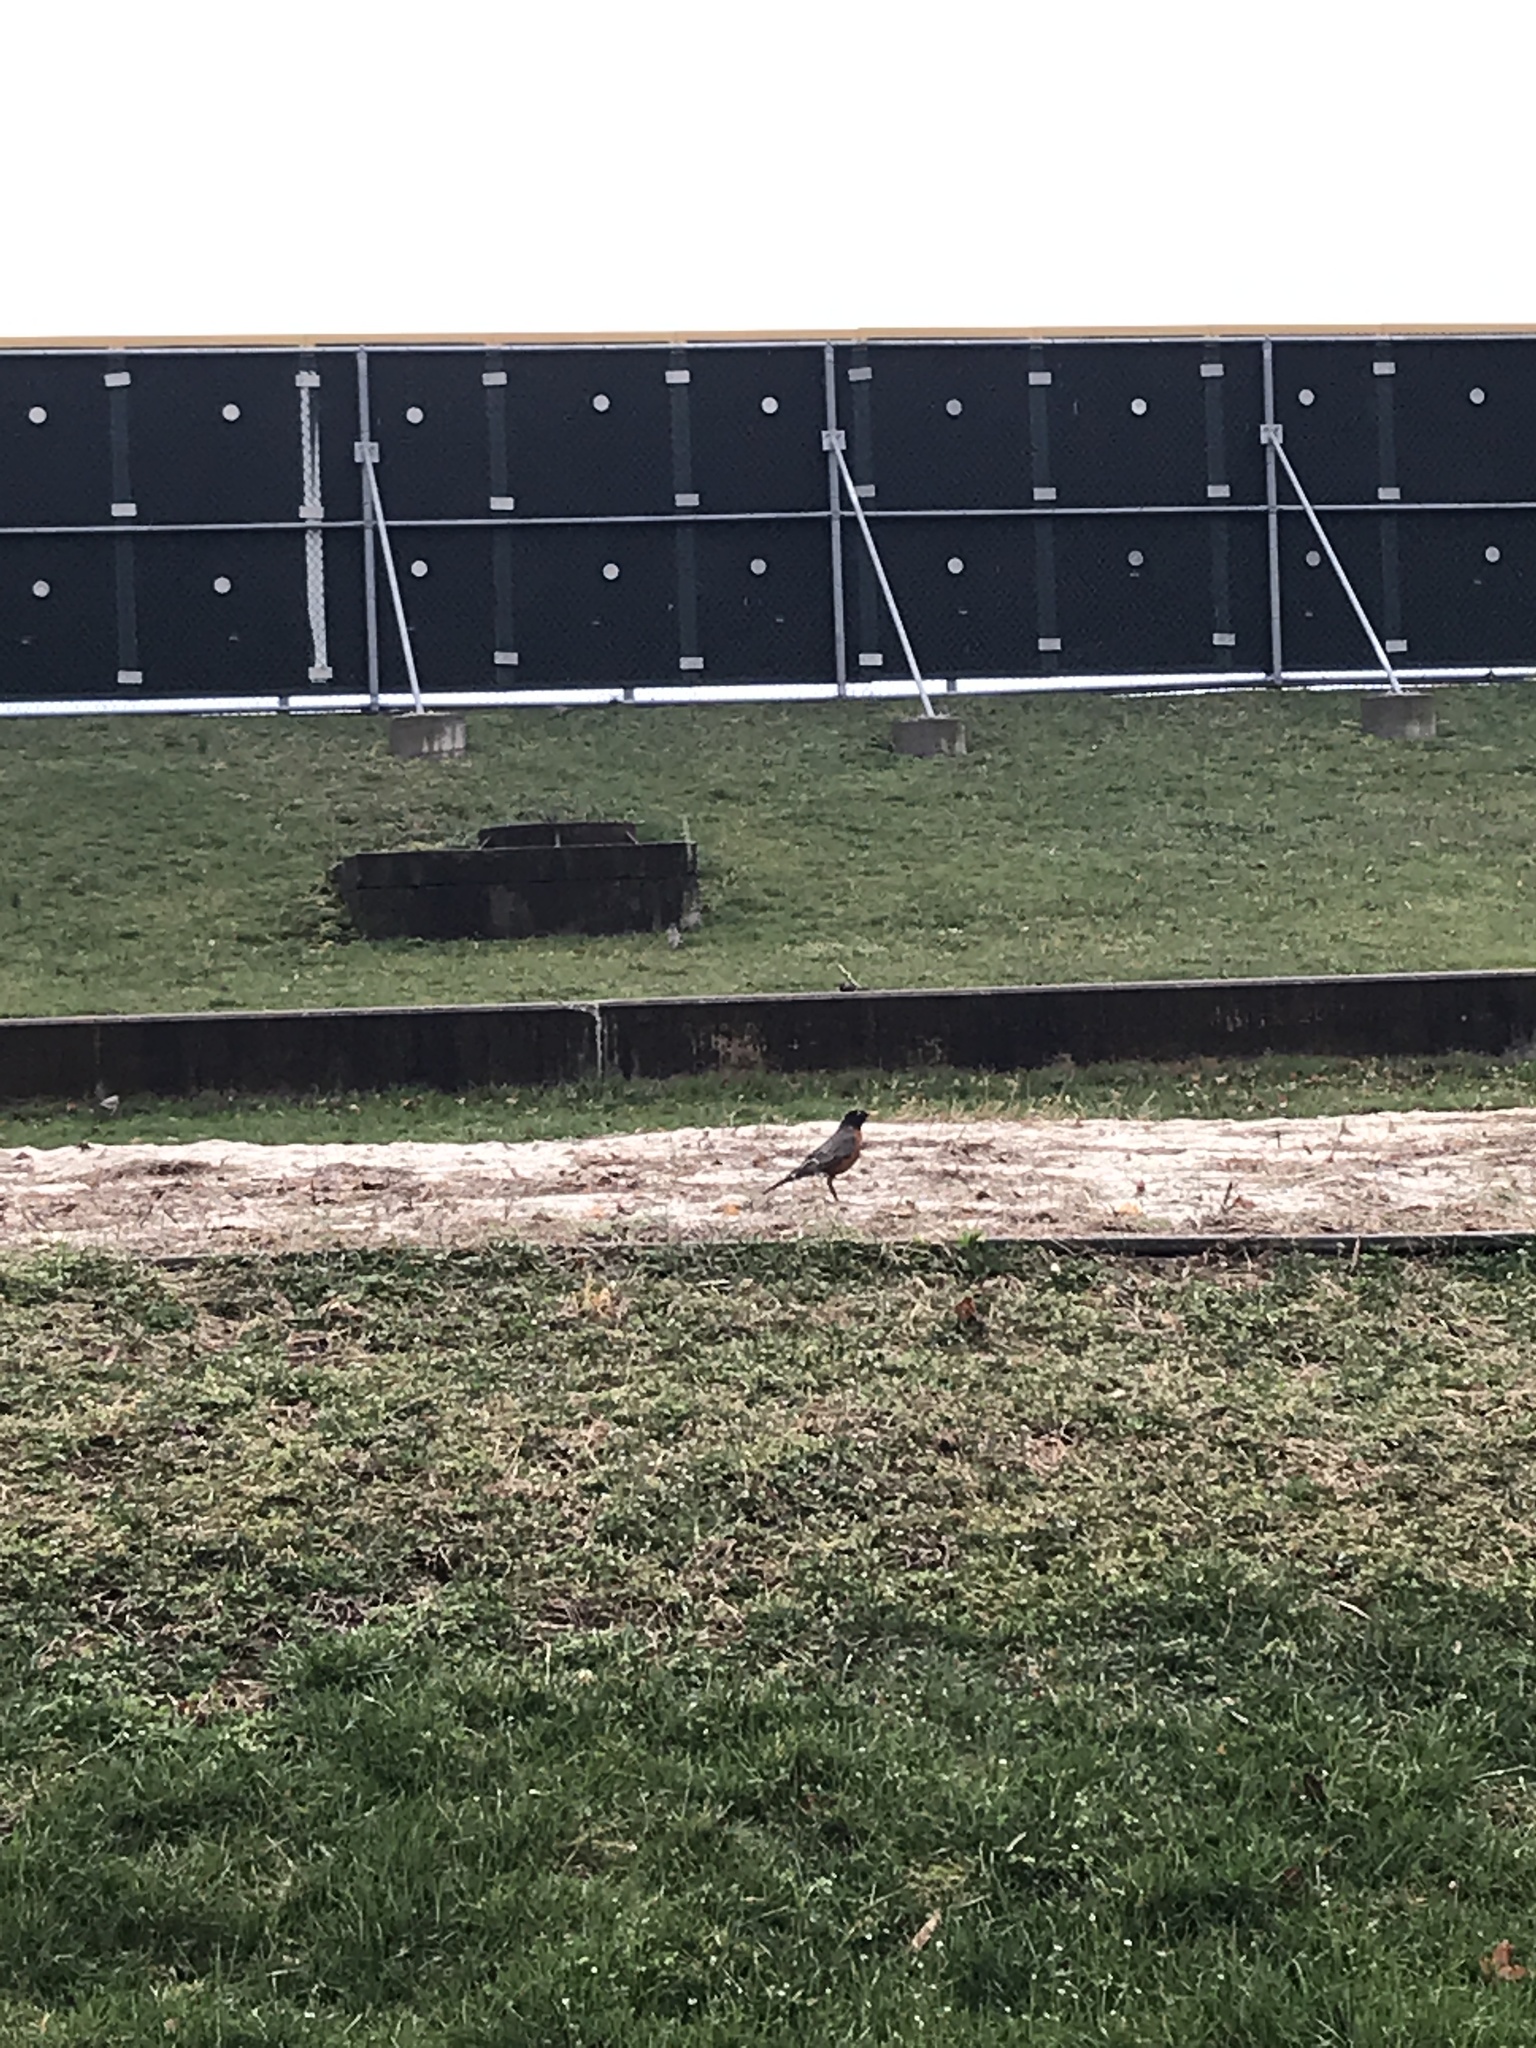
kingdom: Animalia
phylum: Chordata
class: Aves
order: Passeriformes
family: Turdidae
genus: Turdus
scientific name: Turdus migratorius
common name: American robin
